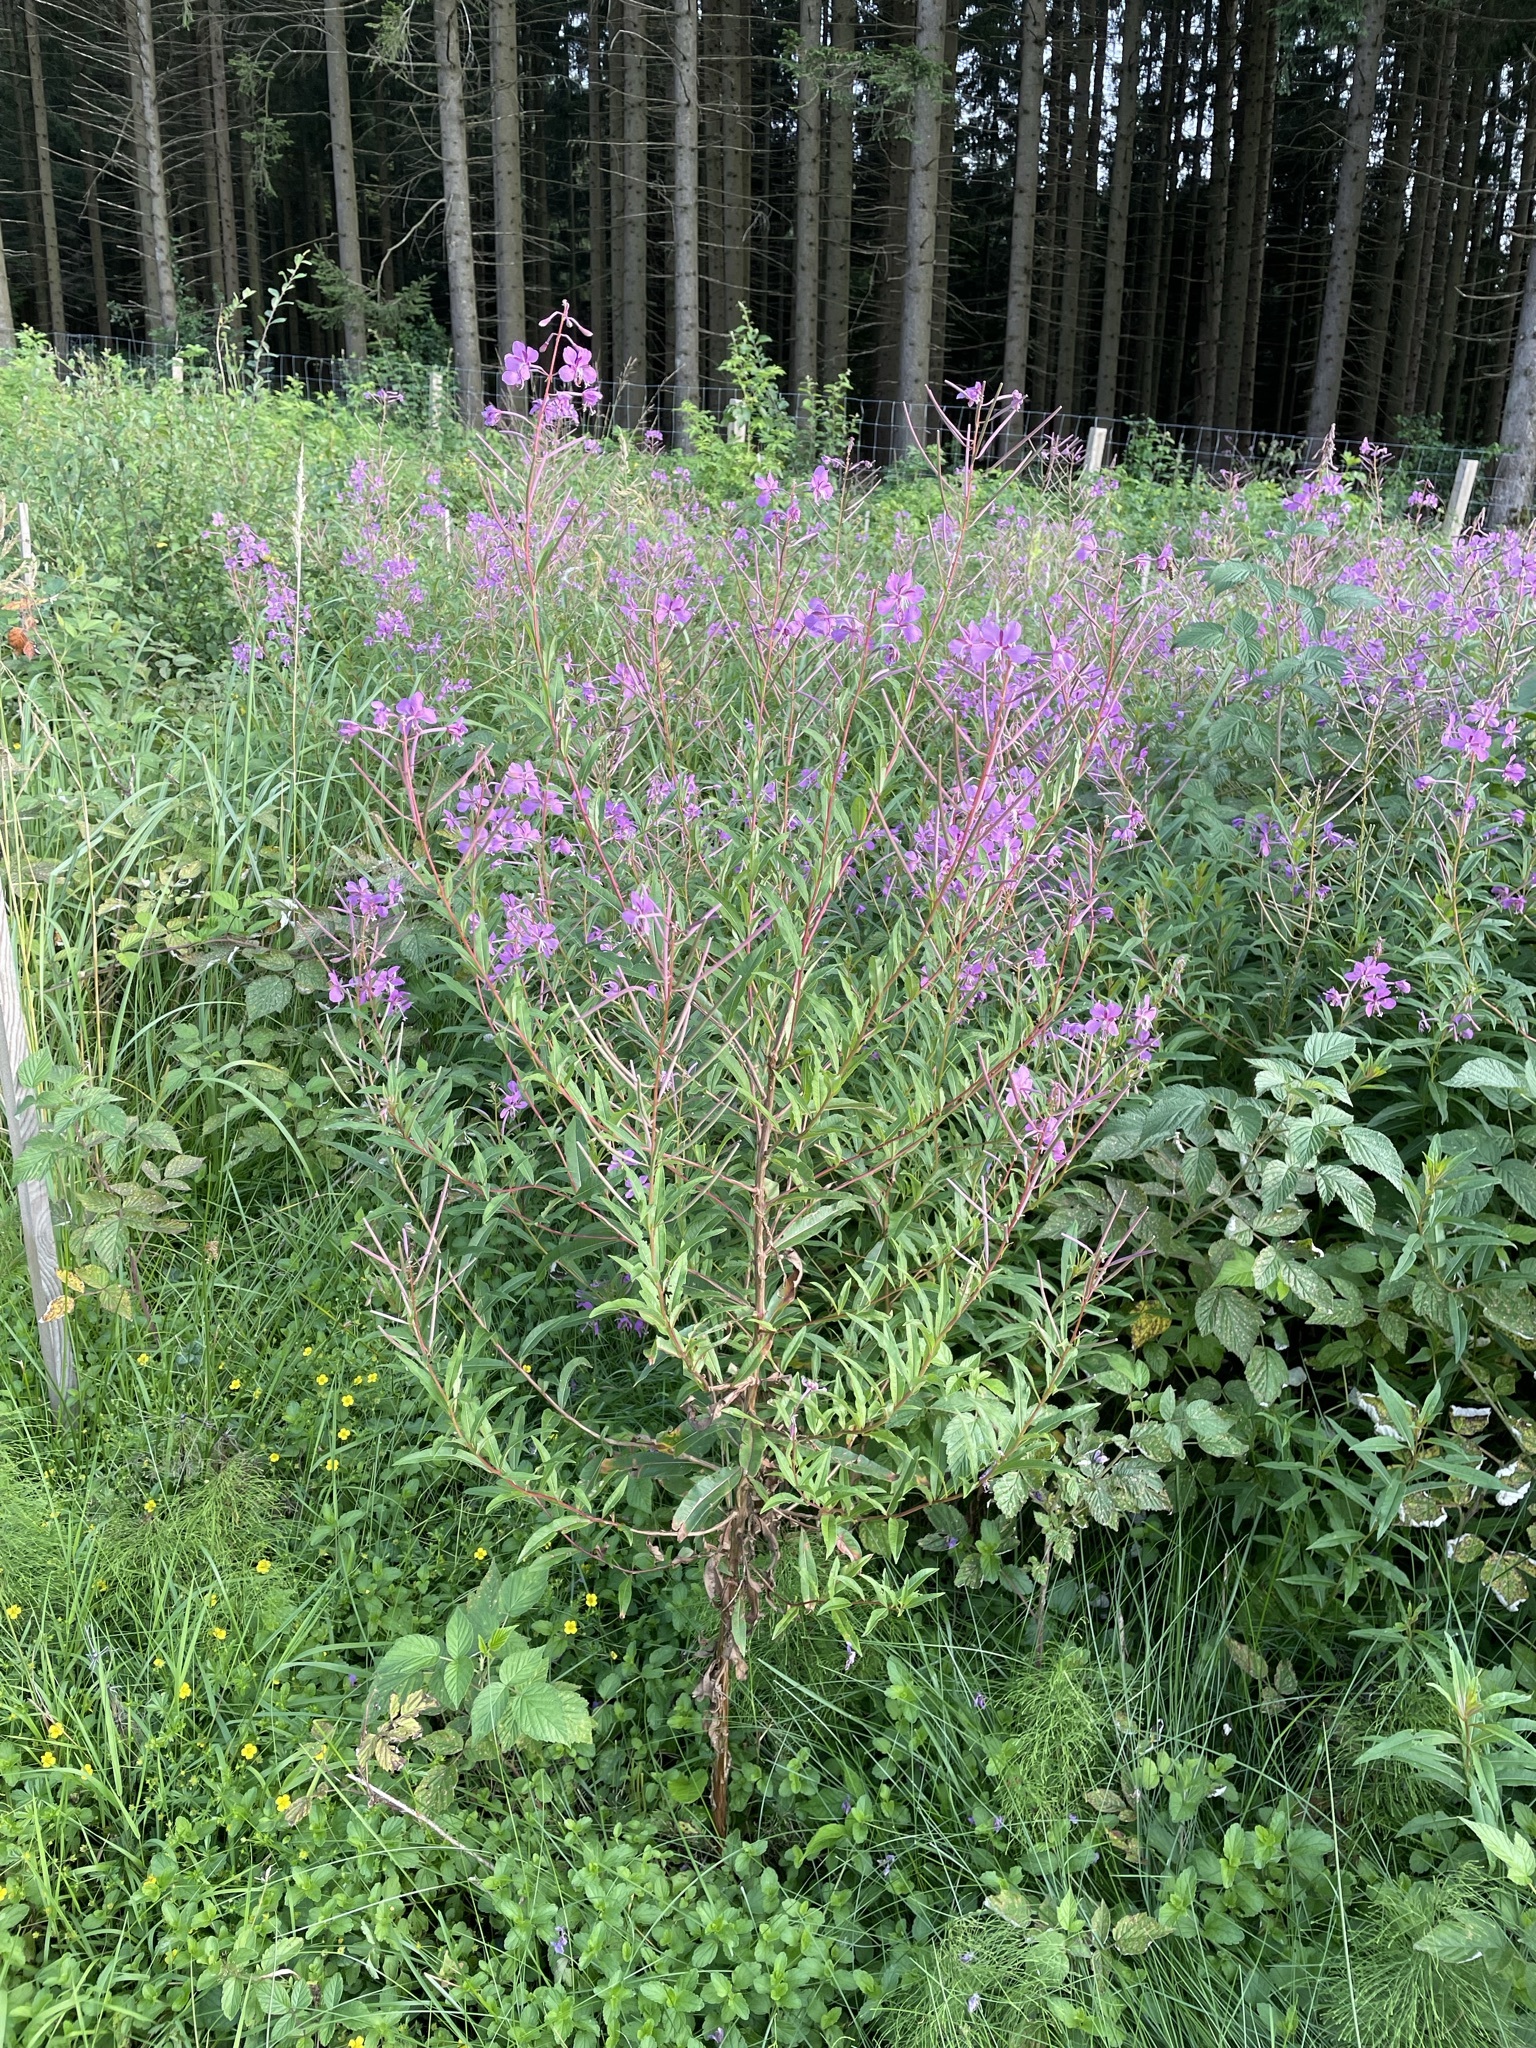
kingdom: Plantae
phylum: Tracheophyta
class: Magnoliopsida
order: Myrtales
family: Onagraceae
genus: Chamaenerion
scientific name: Chamaenerion angustifolium
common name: Fireweed
